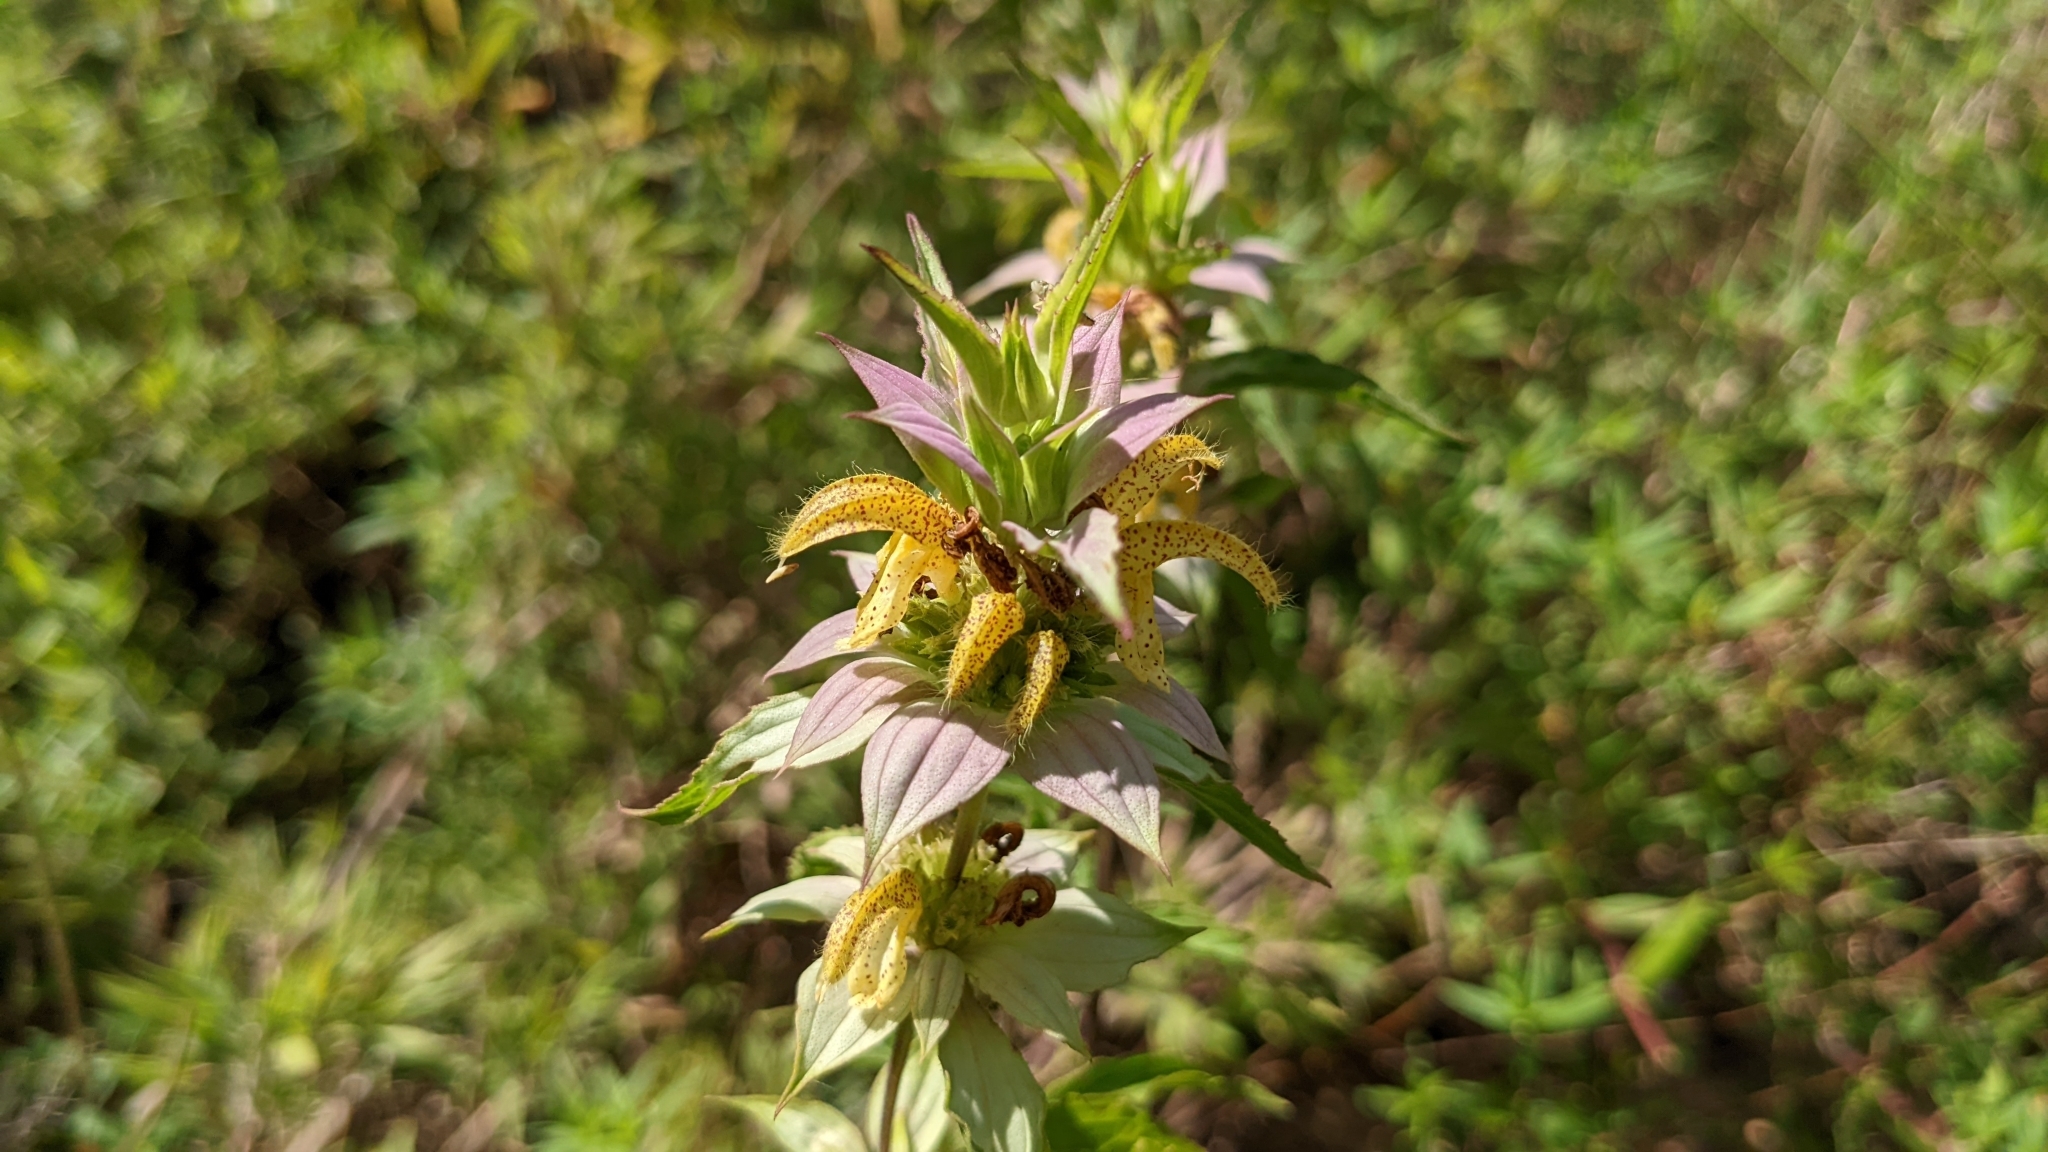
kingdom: Plantae
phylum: Tracheophyta
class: Magnoliopsida
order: Lamiales
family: Lamiaceae
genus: Monarda
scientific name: Monarda punctata
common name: Dotted monarda
